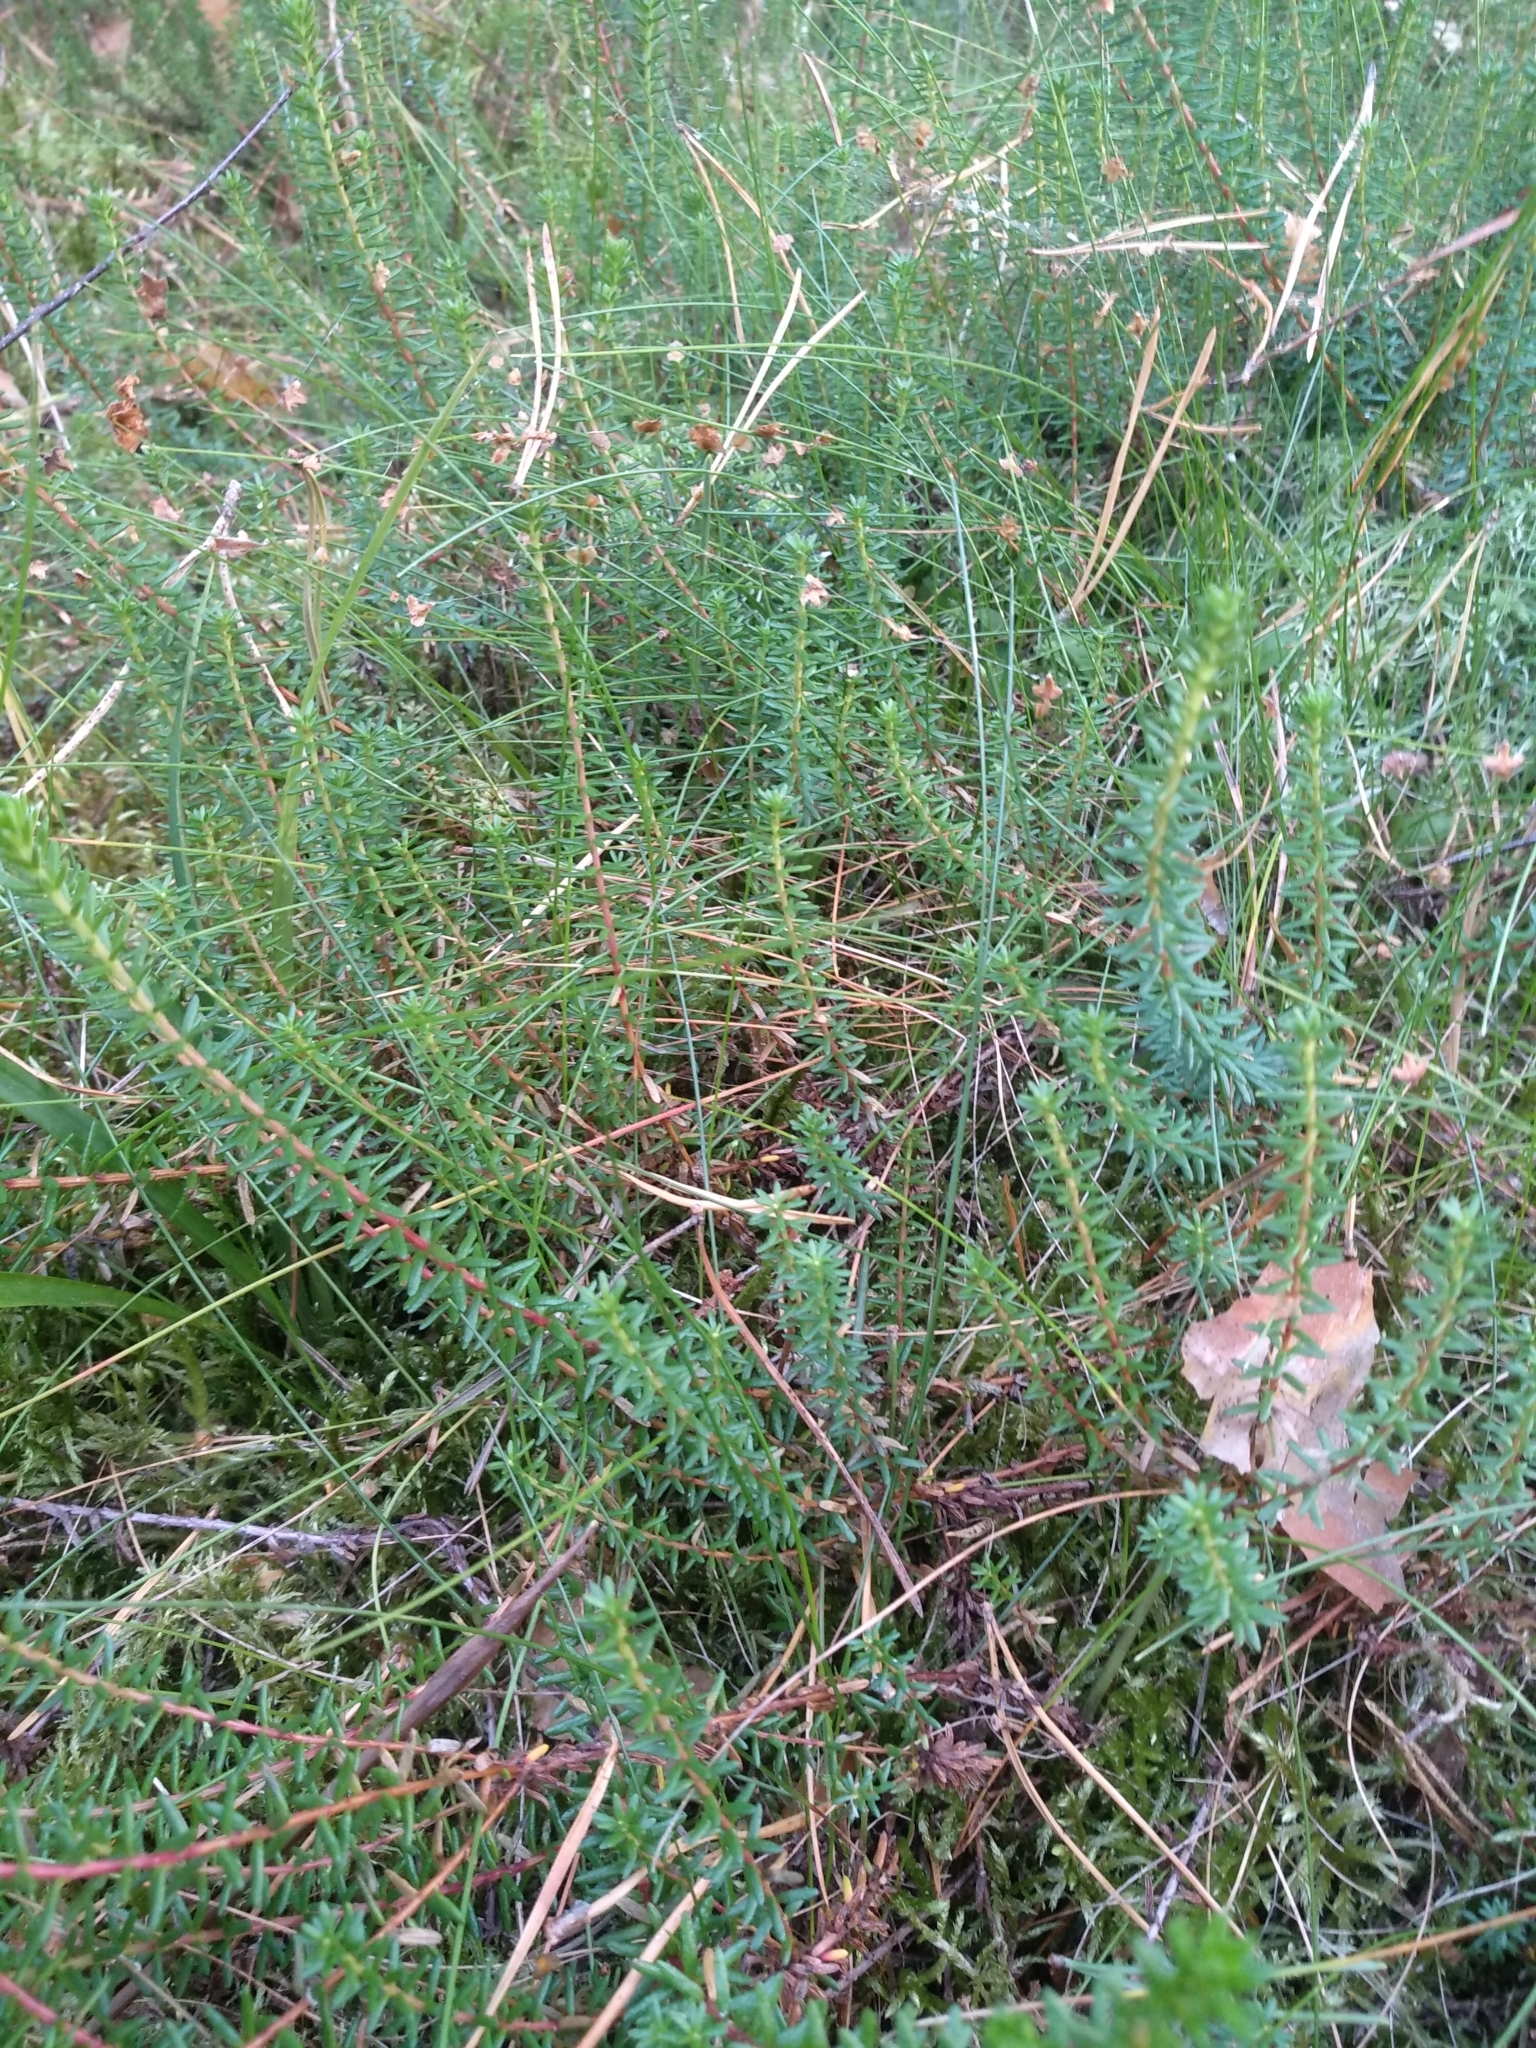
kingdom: Plantae
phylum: Tracheophyta
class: Magnoliopsida
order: Ericales
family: Ericaceae
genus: Empetrum
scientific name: Empetrum nigrum
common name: Black crowberry
